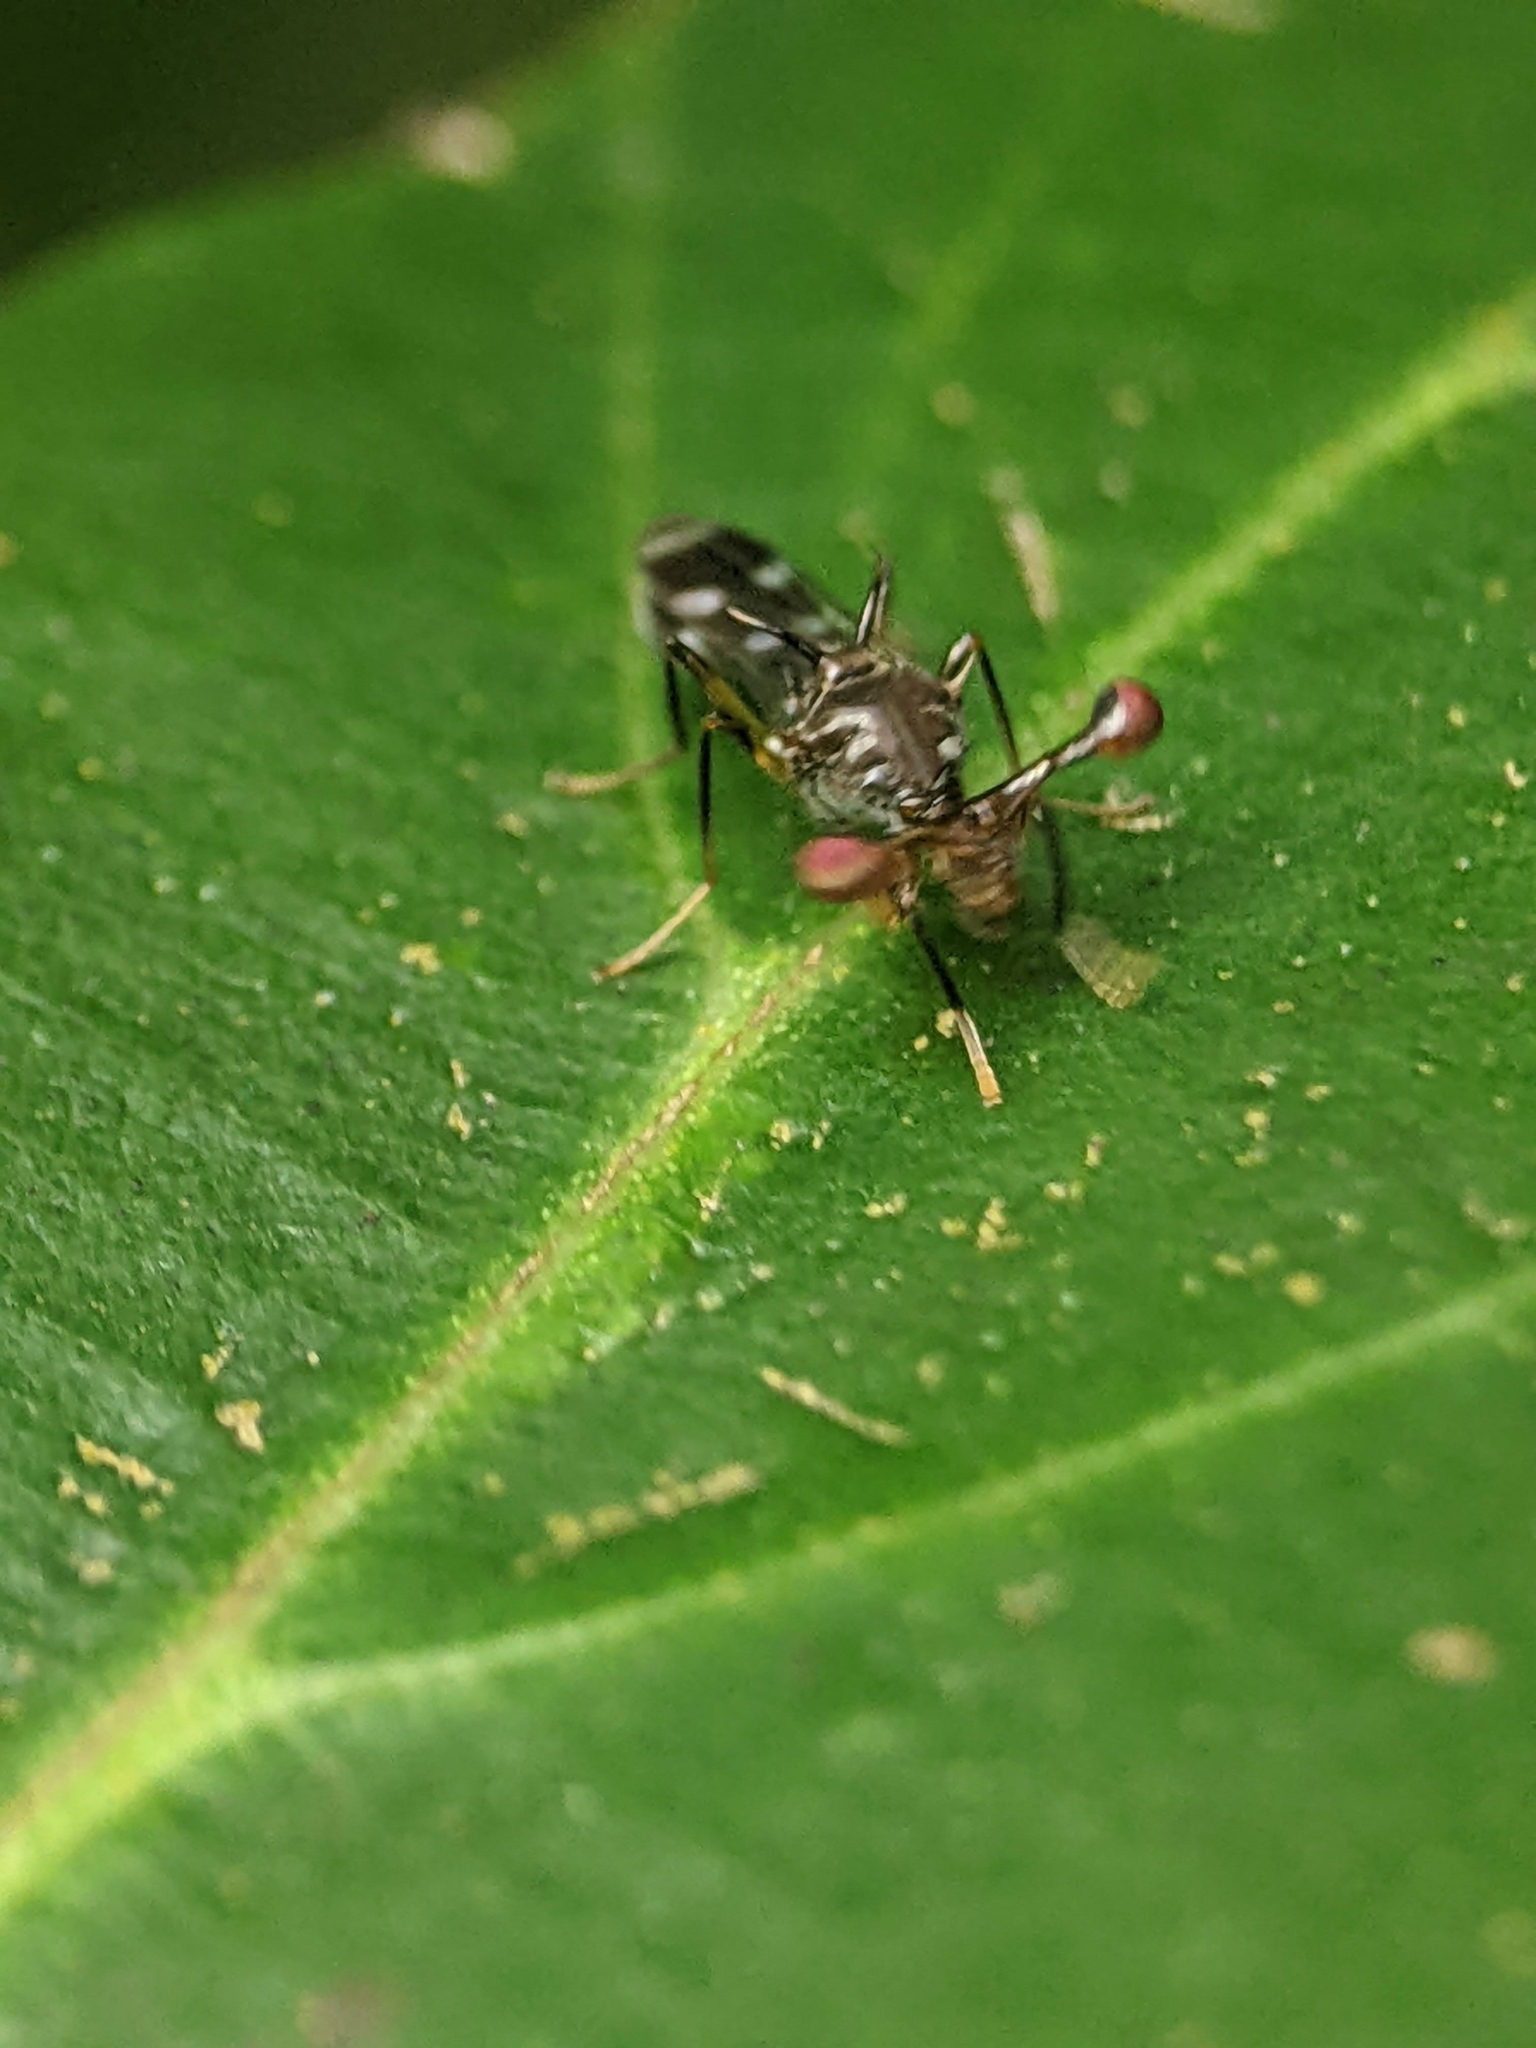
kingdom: Animalia
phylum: Arthropoda
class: Insecta
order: Diptera
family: Diopsidae
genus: Megalabops
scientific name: Megalabops
